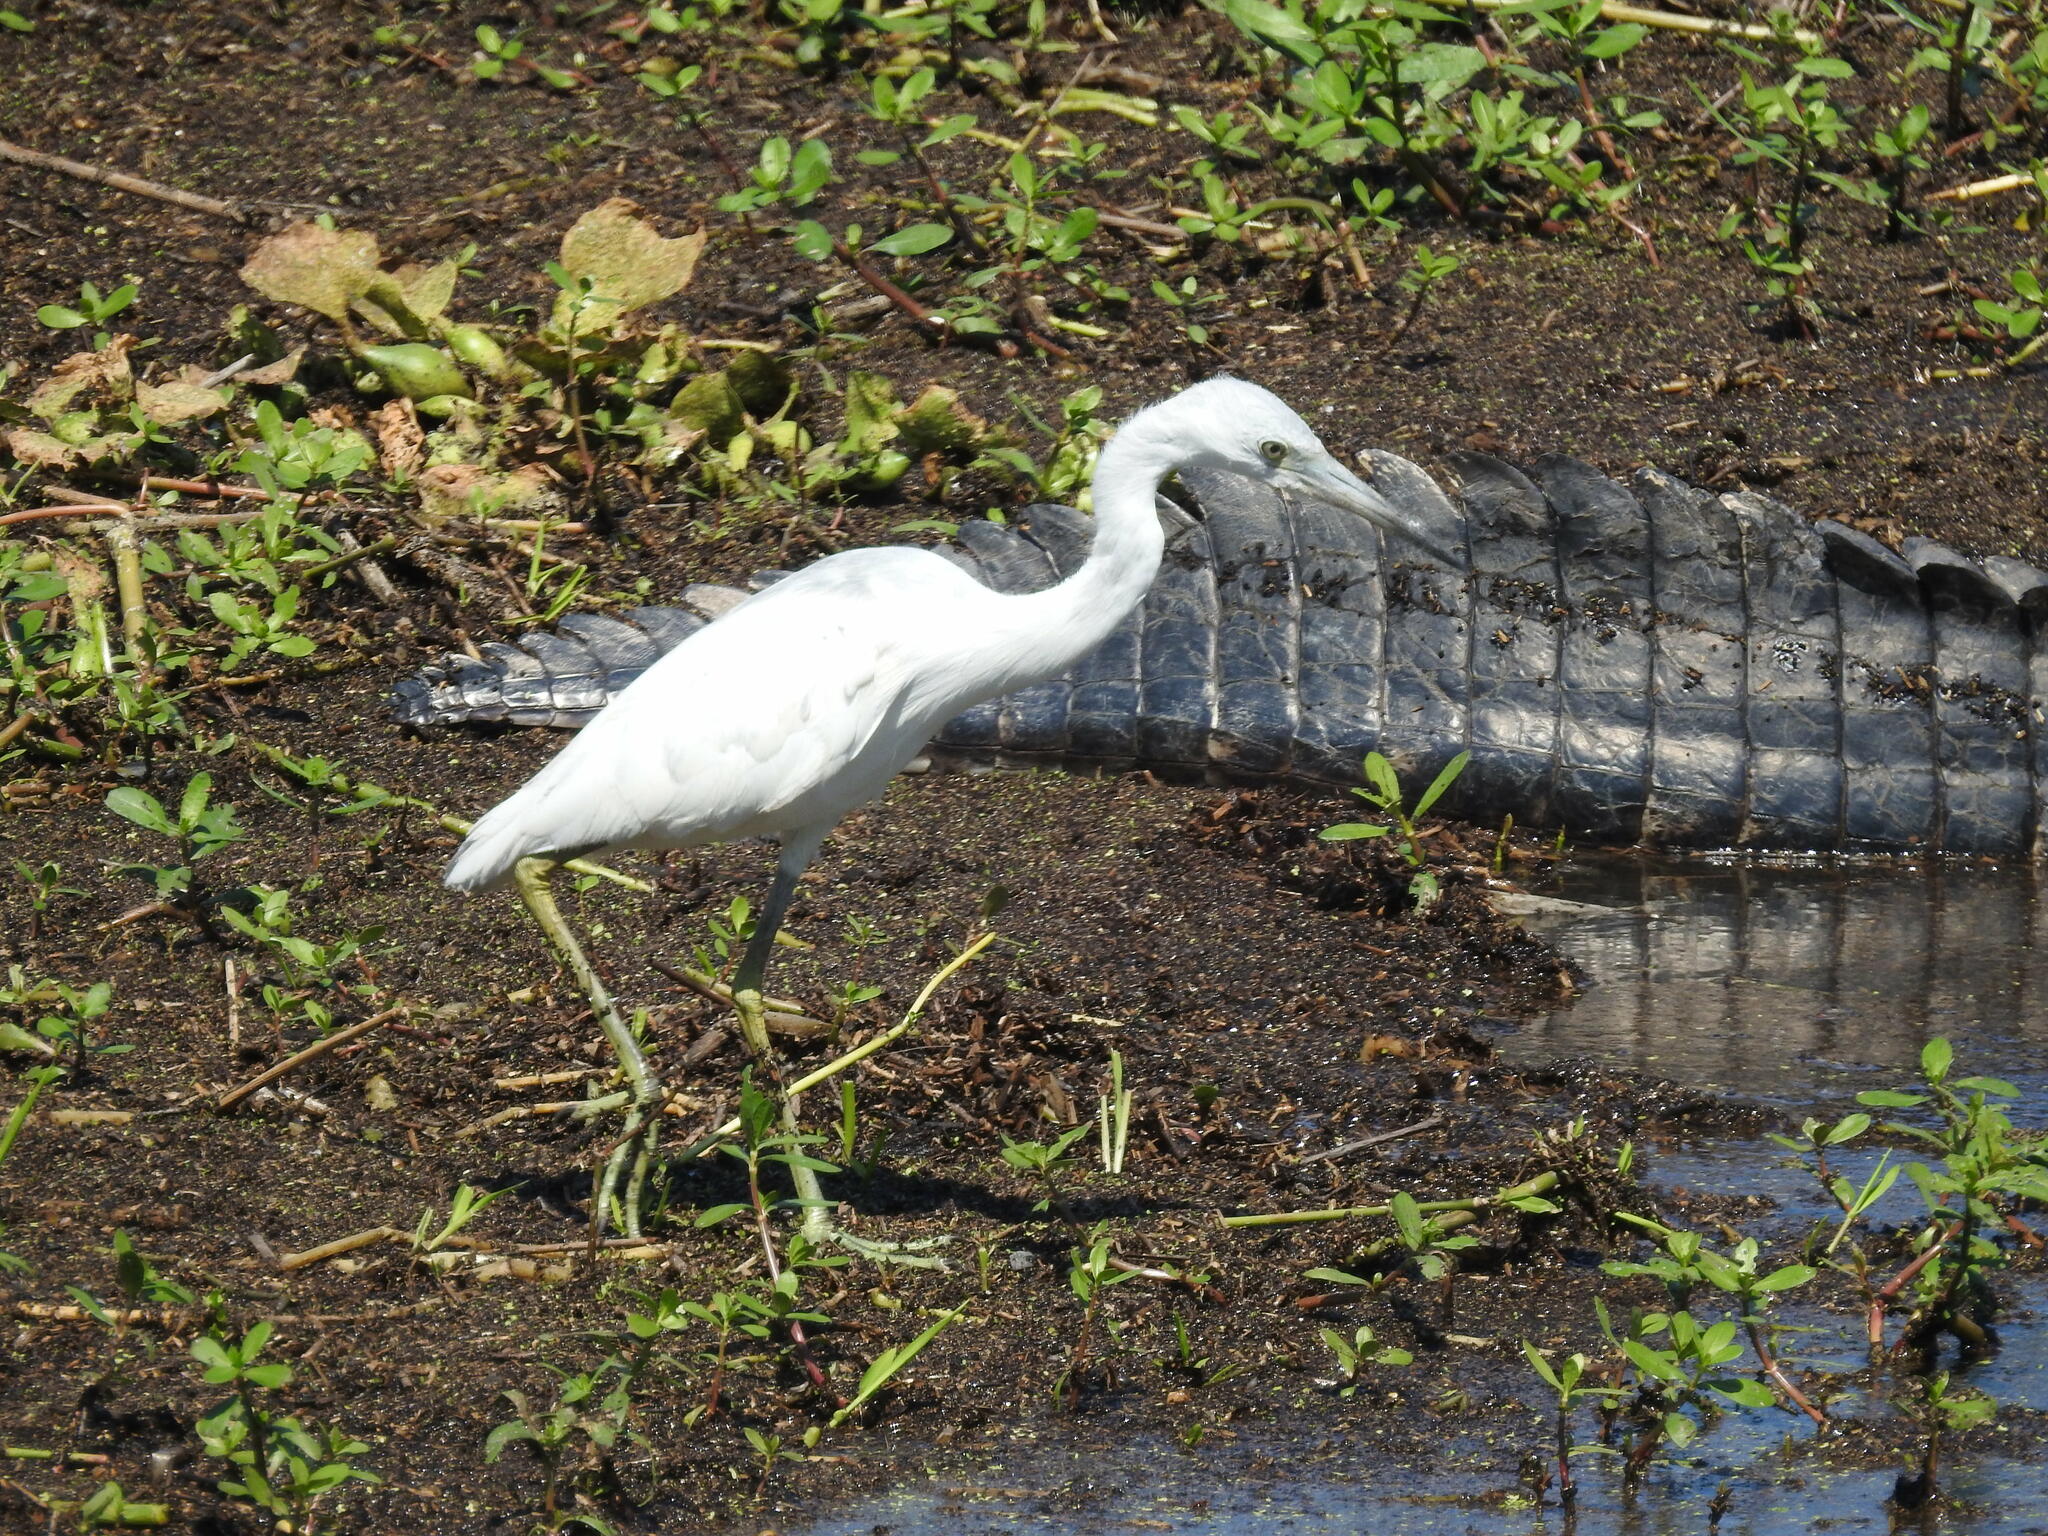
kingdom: Animalia
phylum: Chordata
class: Aves
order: Pelecaniformes
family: Ardeidae
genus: Egretta
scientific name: Egretta caerulea
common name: Little blue heron
